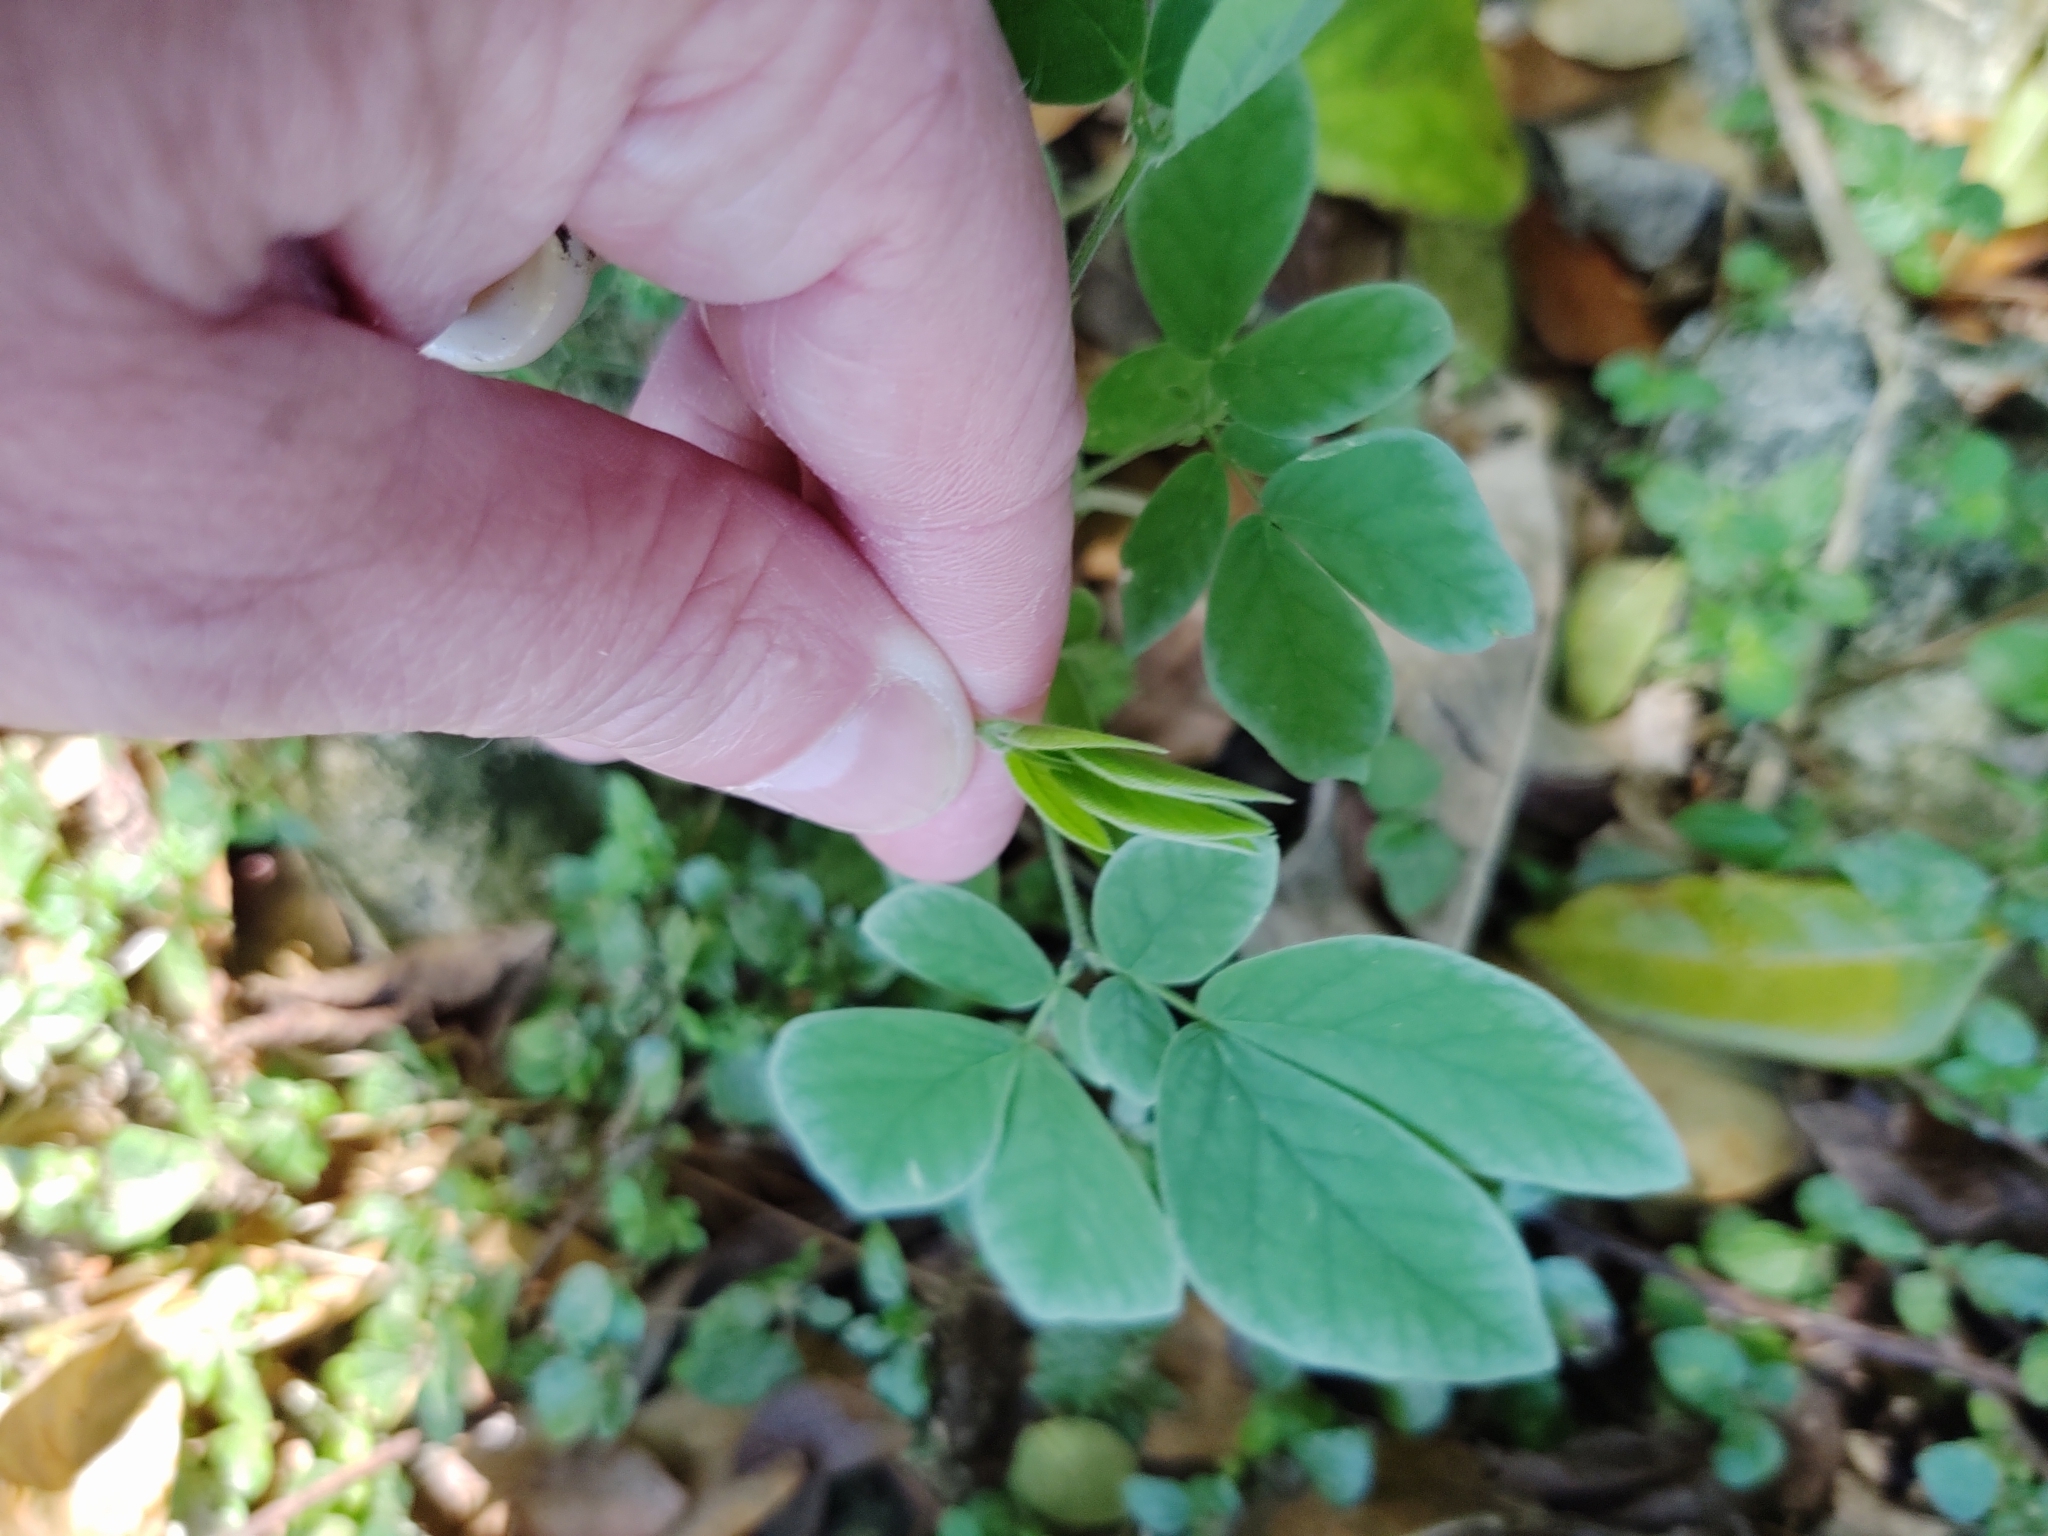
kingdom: Plantae
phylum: Tracheophyta
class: Magnoliopsida
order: Fabales
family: Fabaceae
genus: Samanea
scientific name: Samanea saman
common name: Raintree
